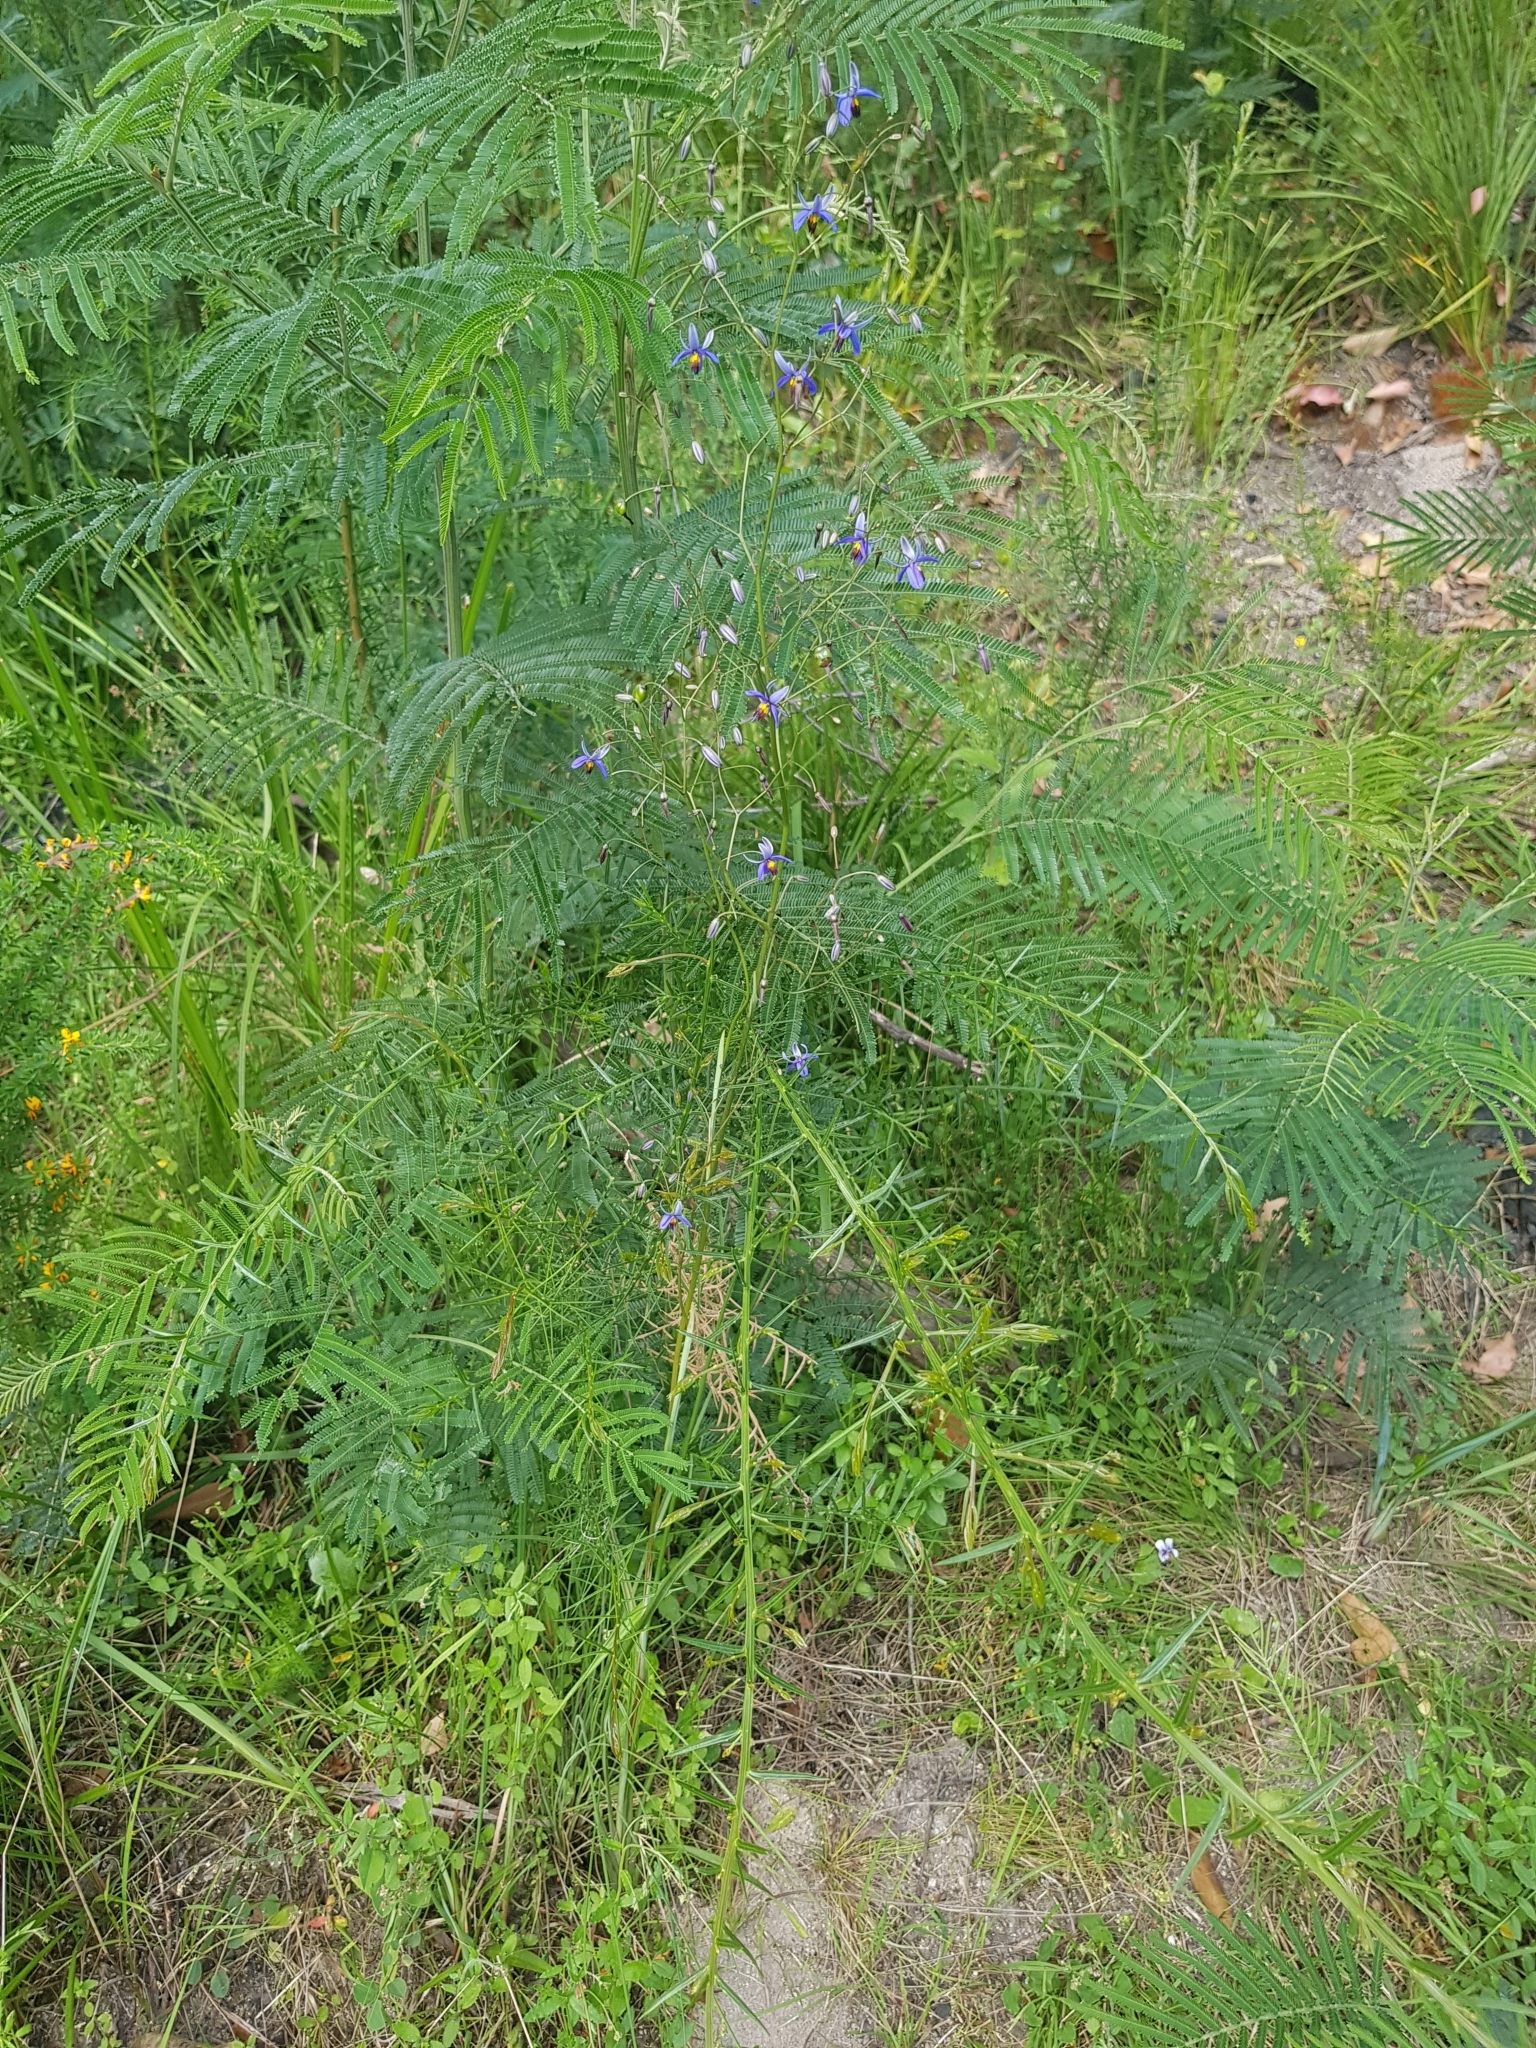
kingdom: Plantae
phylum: Tracheophyta
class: Liliopsida
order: Asparagales
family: Asphodelaceae
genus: Dianella
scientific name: Dianella revoluta
